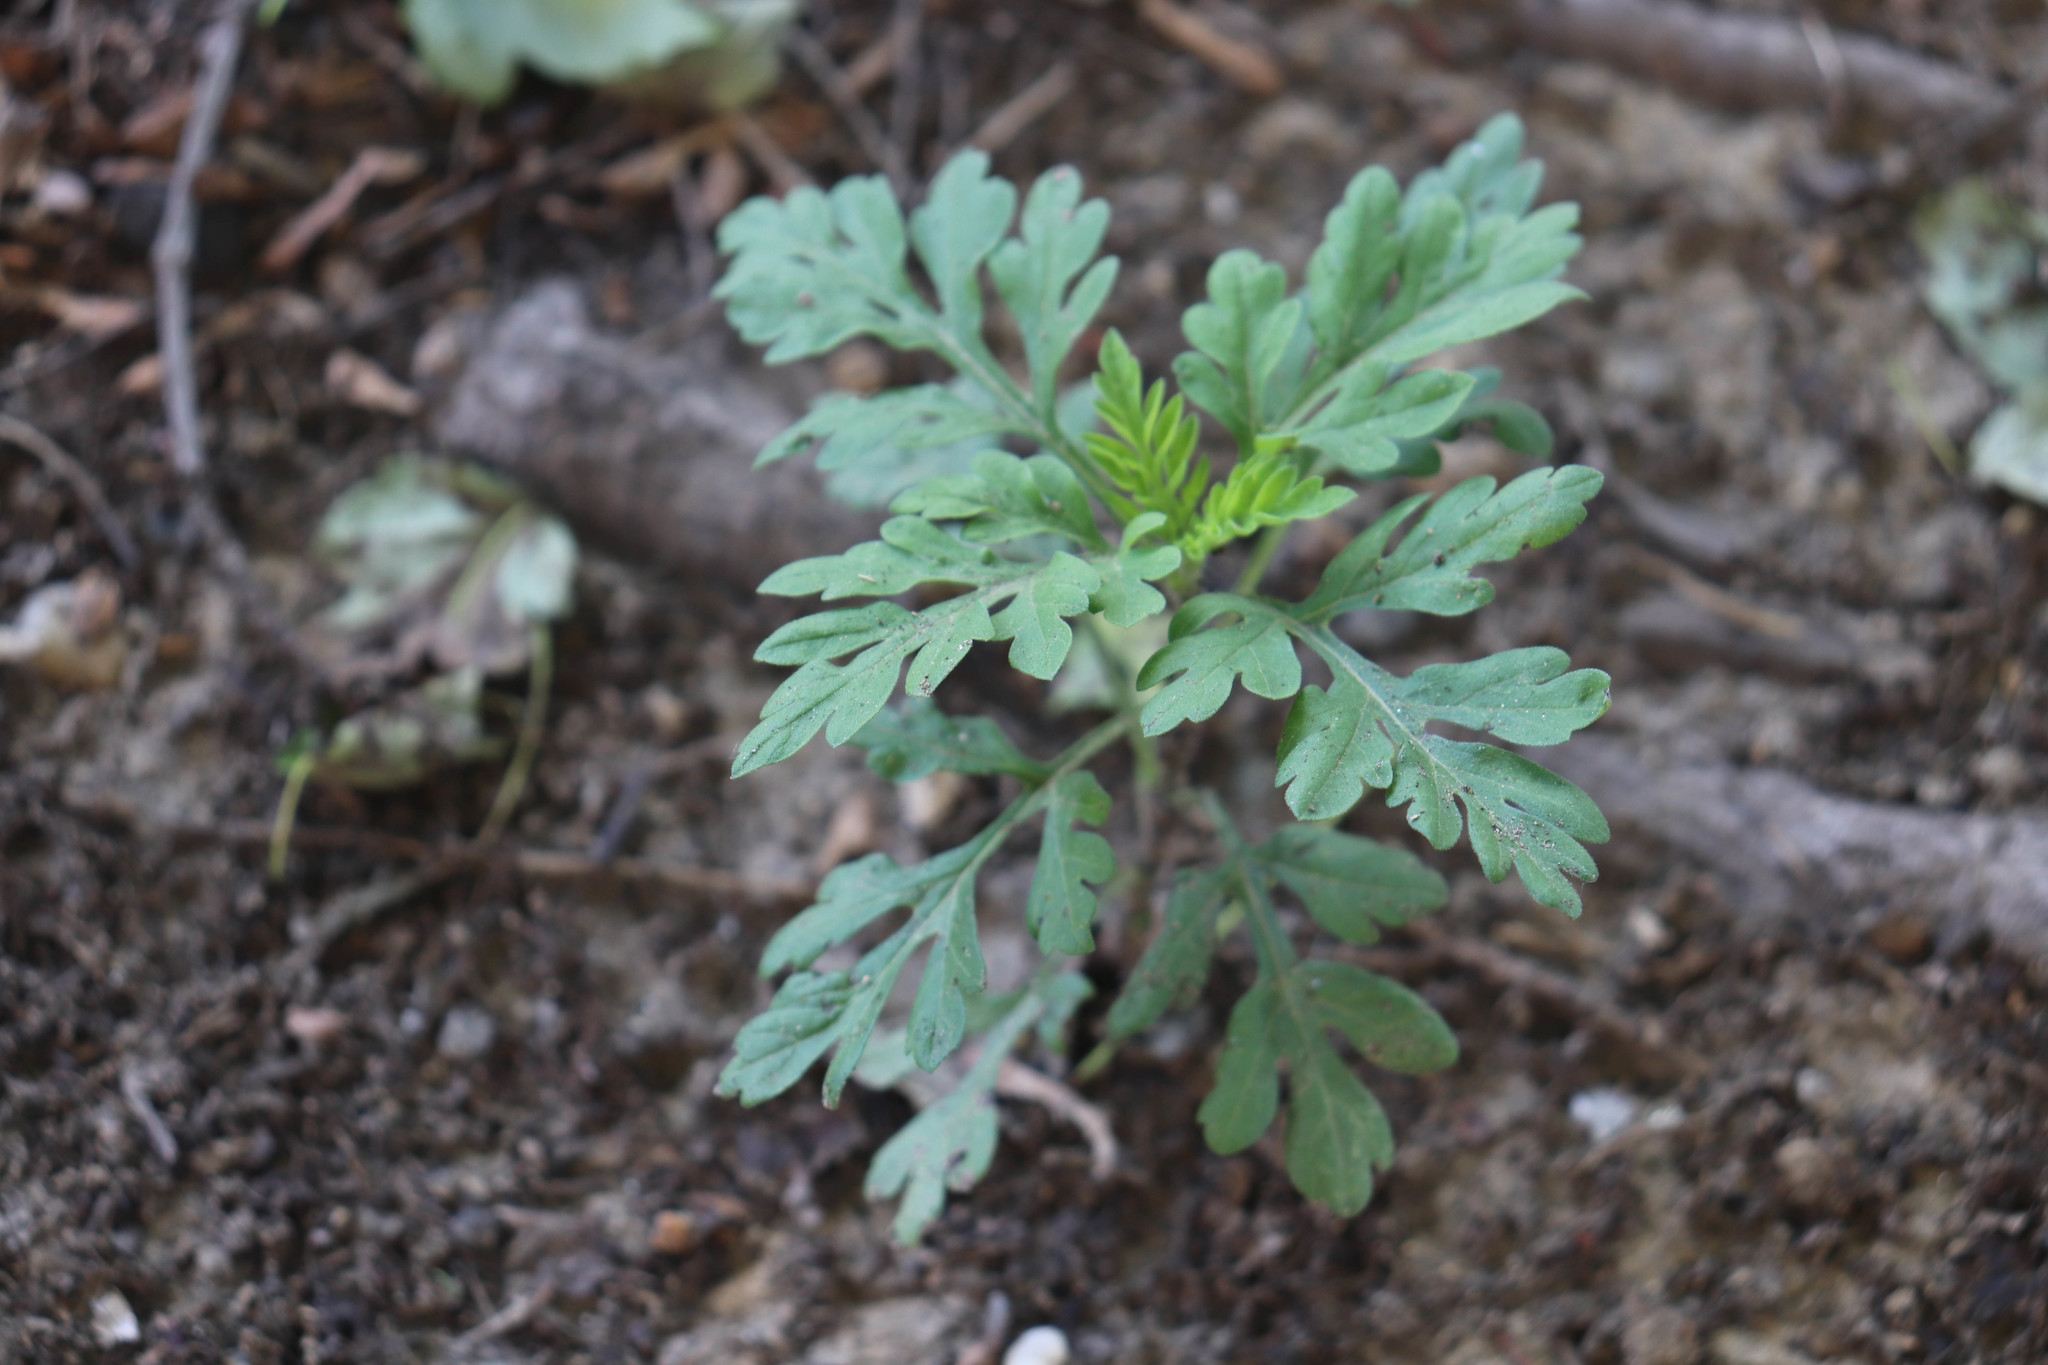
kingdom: Plantae
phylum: Tracheophyta
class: Magnoliopsida
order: Asterales
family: Asteraceae
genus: Ambrosia
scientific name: Ambrosia artemisiifolia
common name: Annual ragweed
